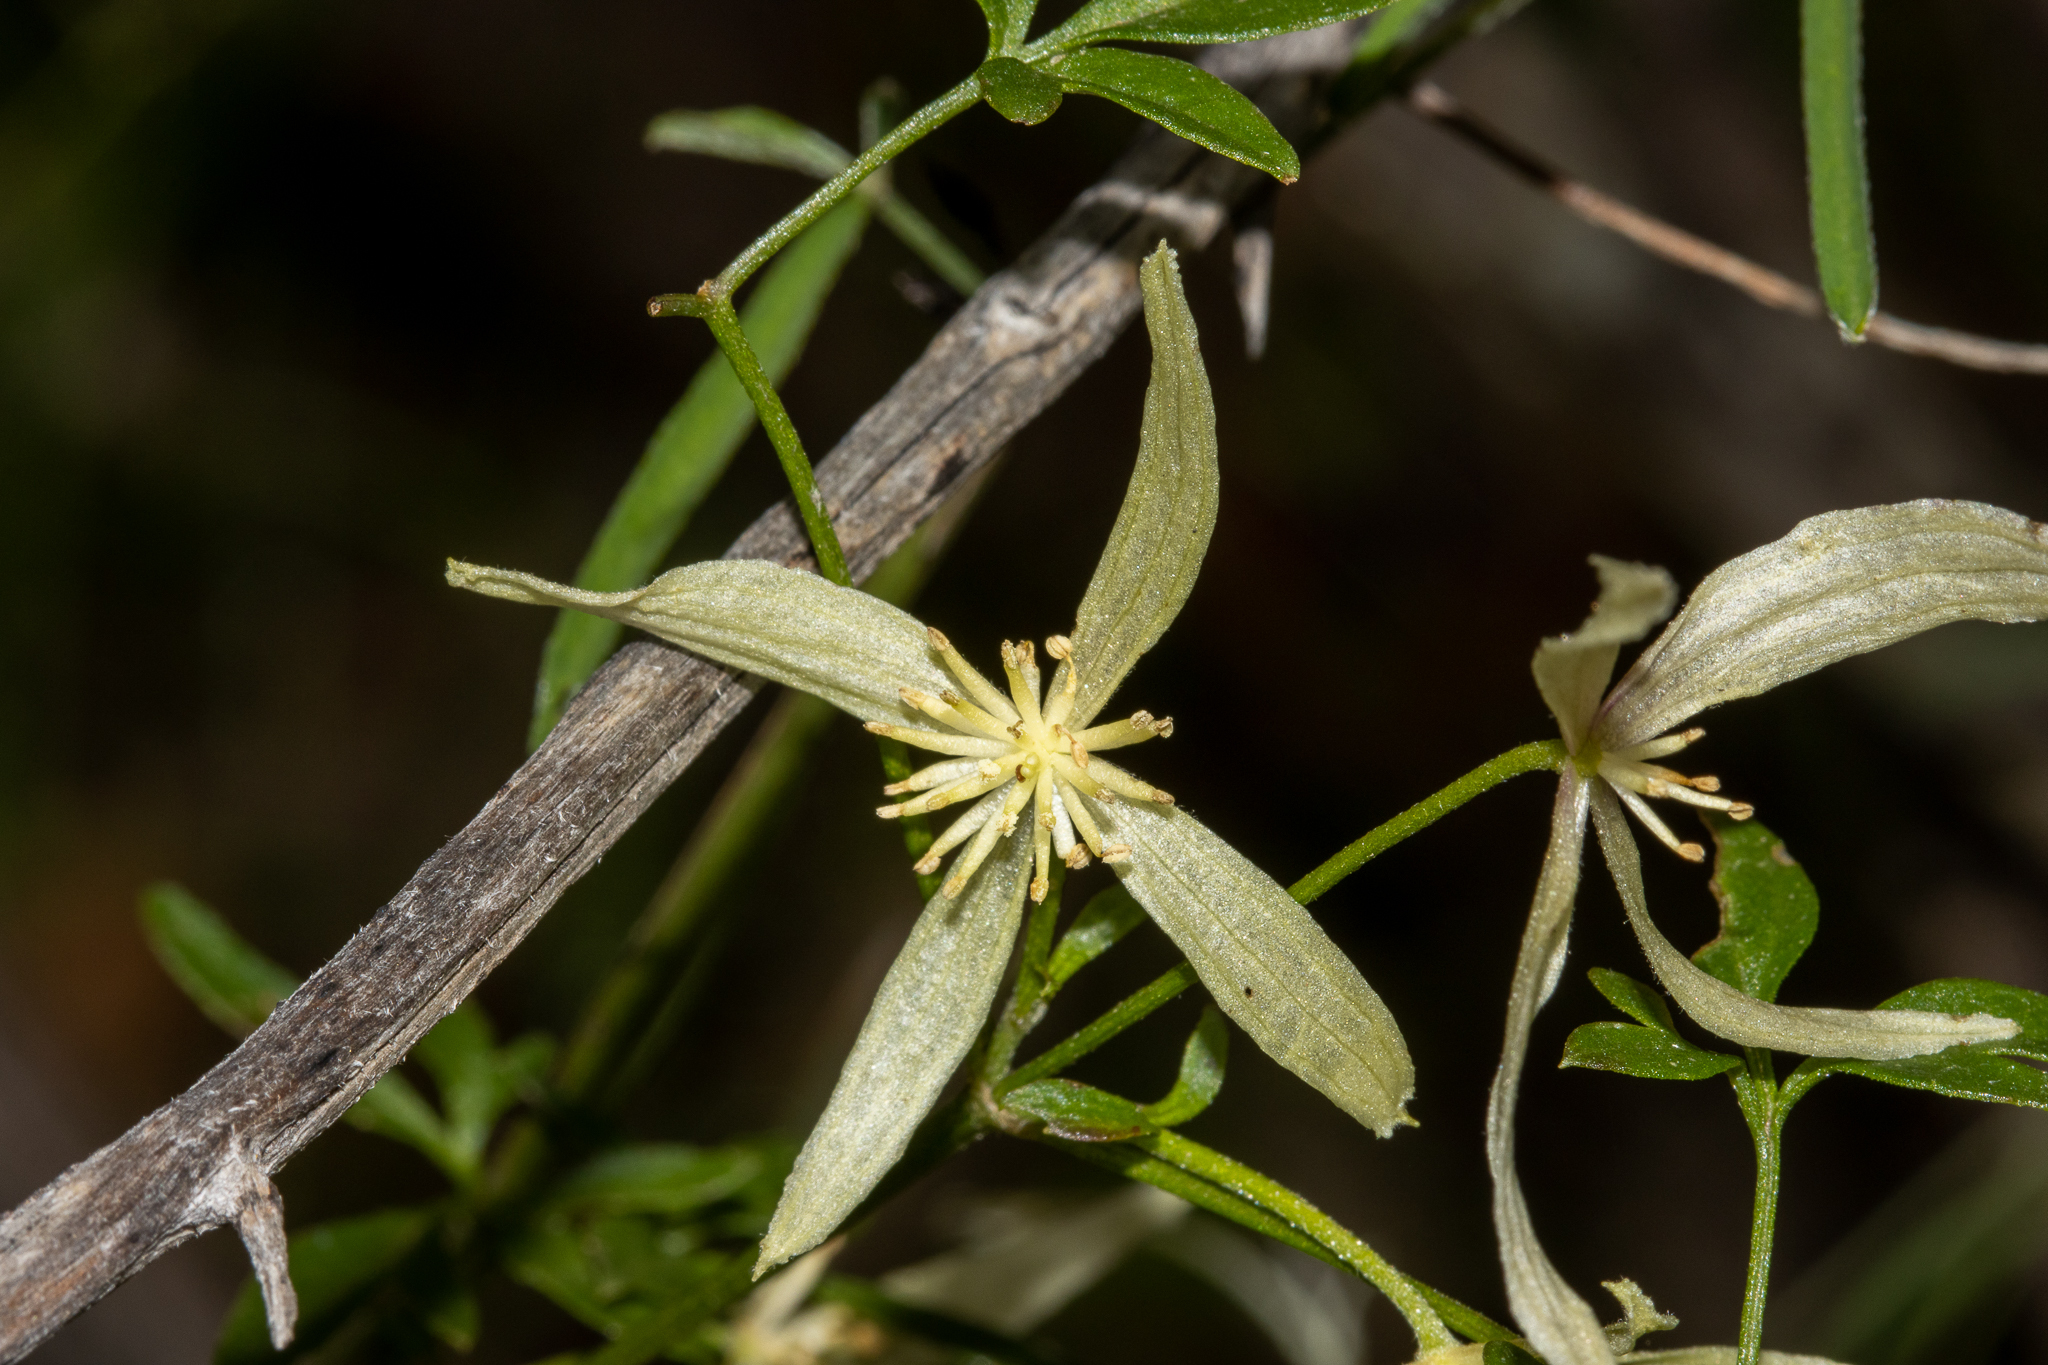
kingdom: Plantae
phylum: Tracheophyta
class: Magnoliopsida
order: Ranunculales
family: Ranunculaceae
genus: Clematis
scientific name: Clematis microphylla
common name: Headachevine
